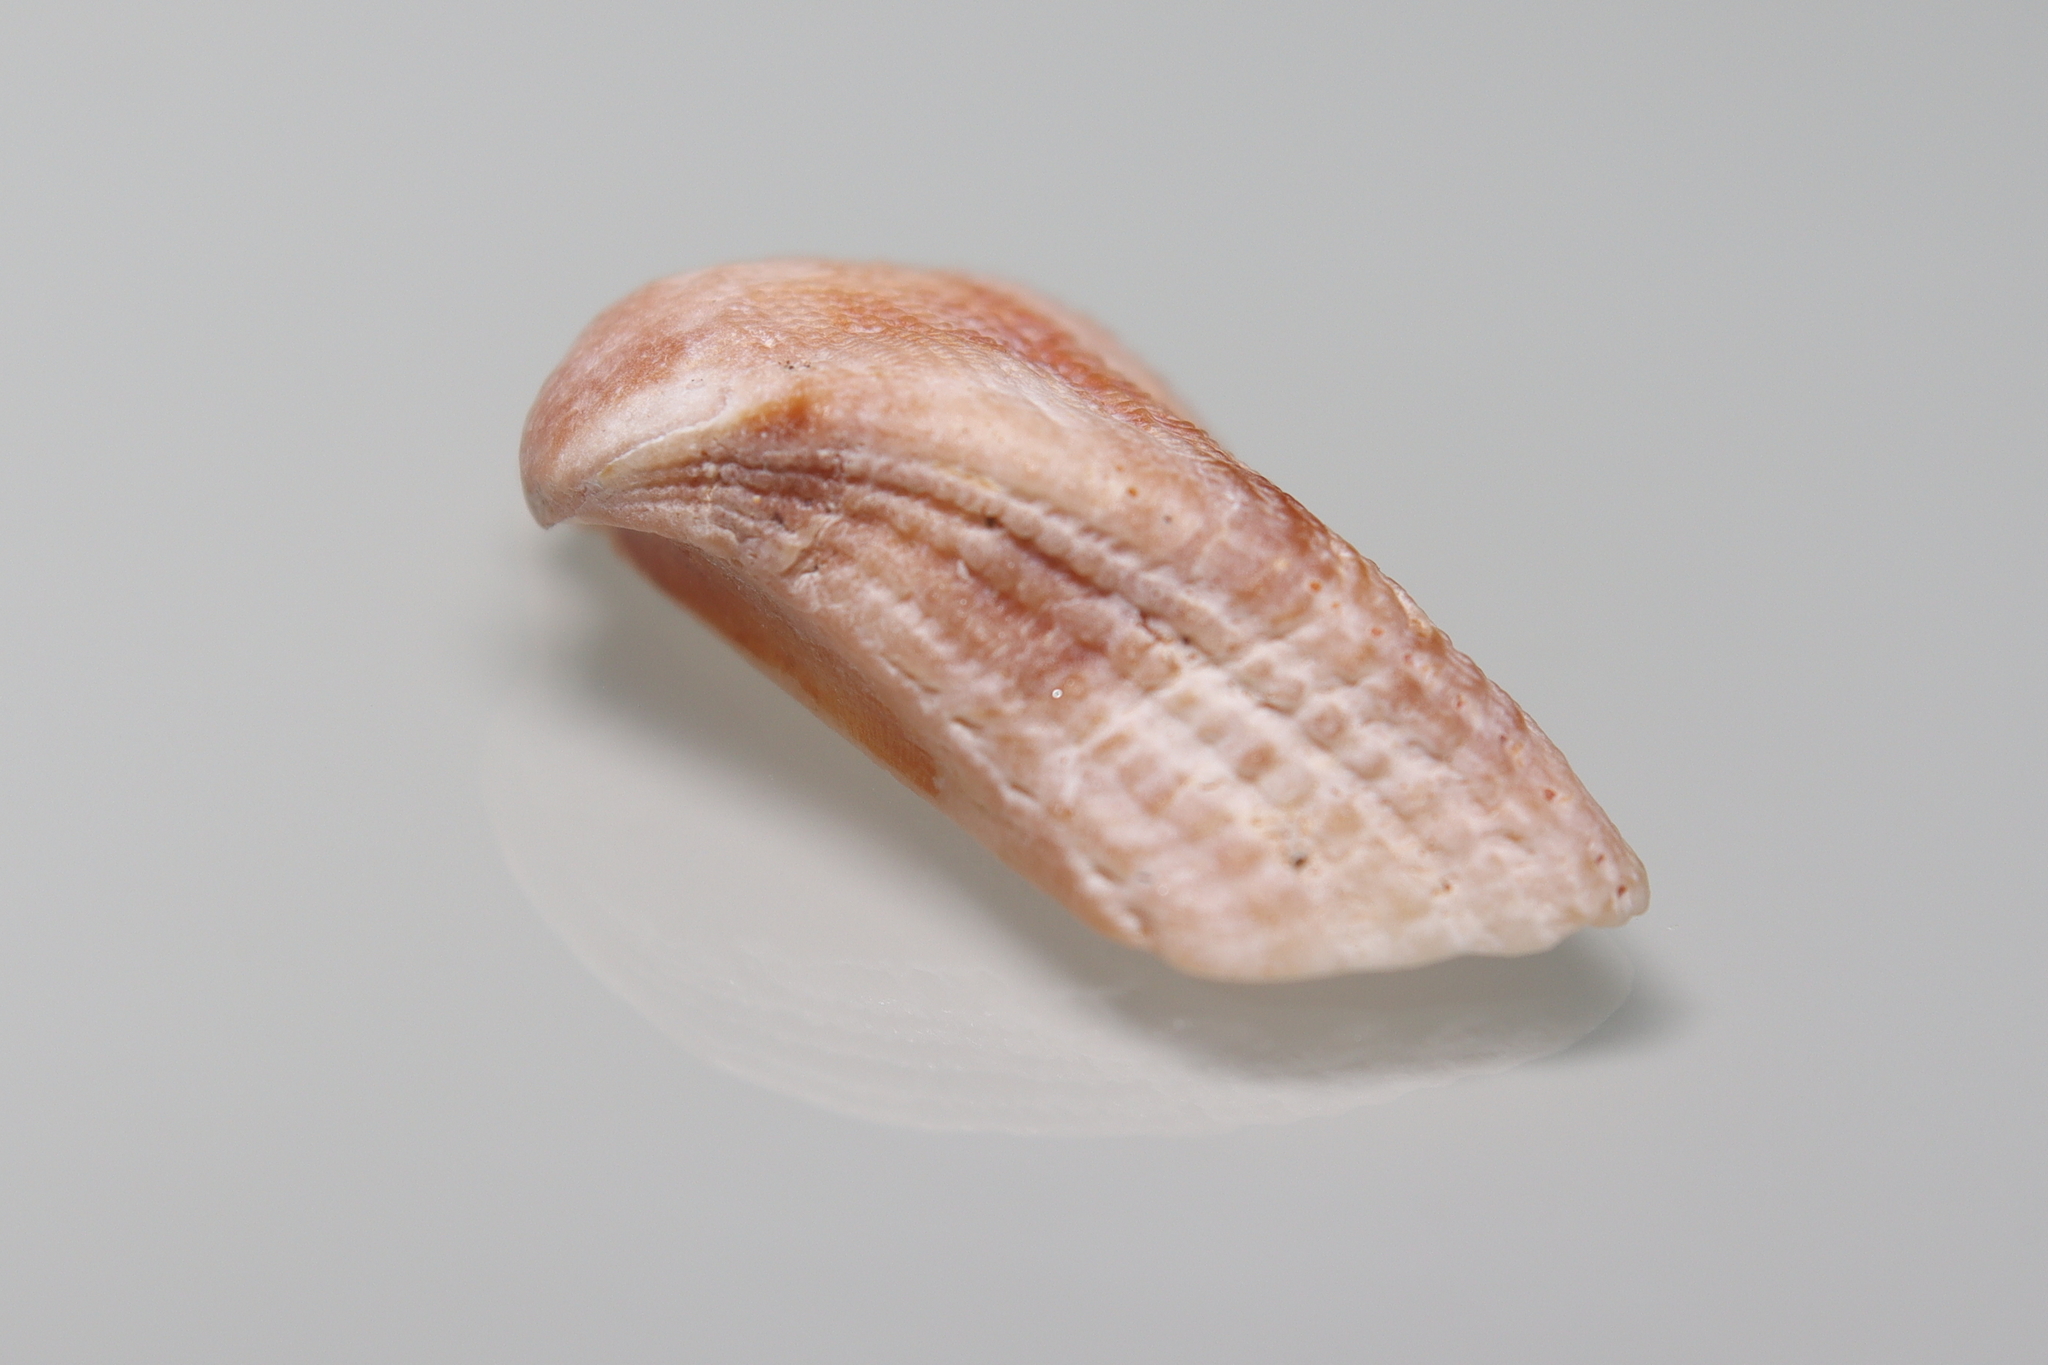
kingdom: Animalia
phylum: Mollusca
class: Bivalvia
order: Arcida
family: Arcidae
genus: Lamarcka
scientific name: Lamarcka imbricata
